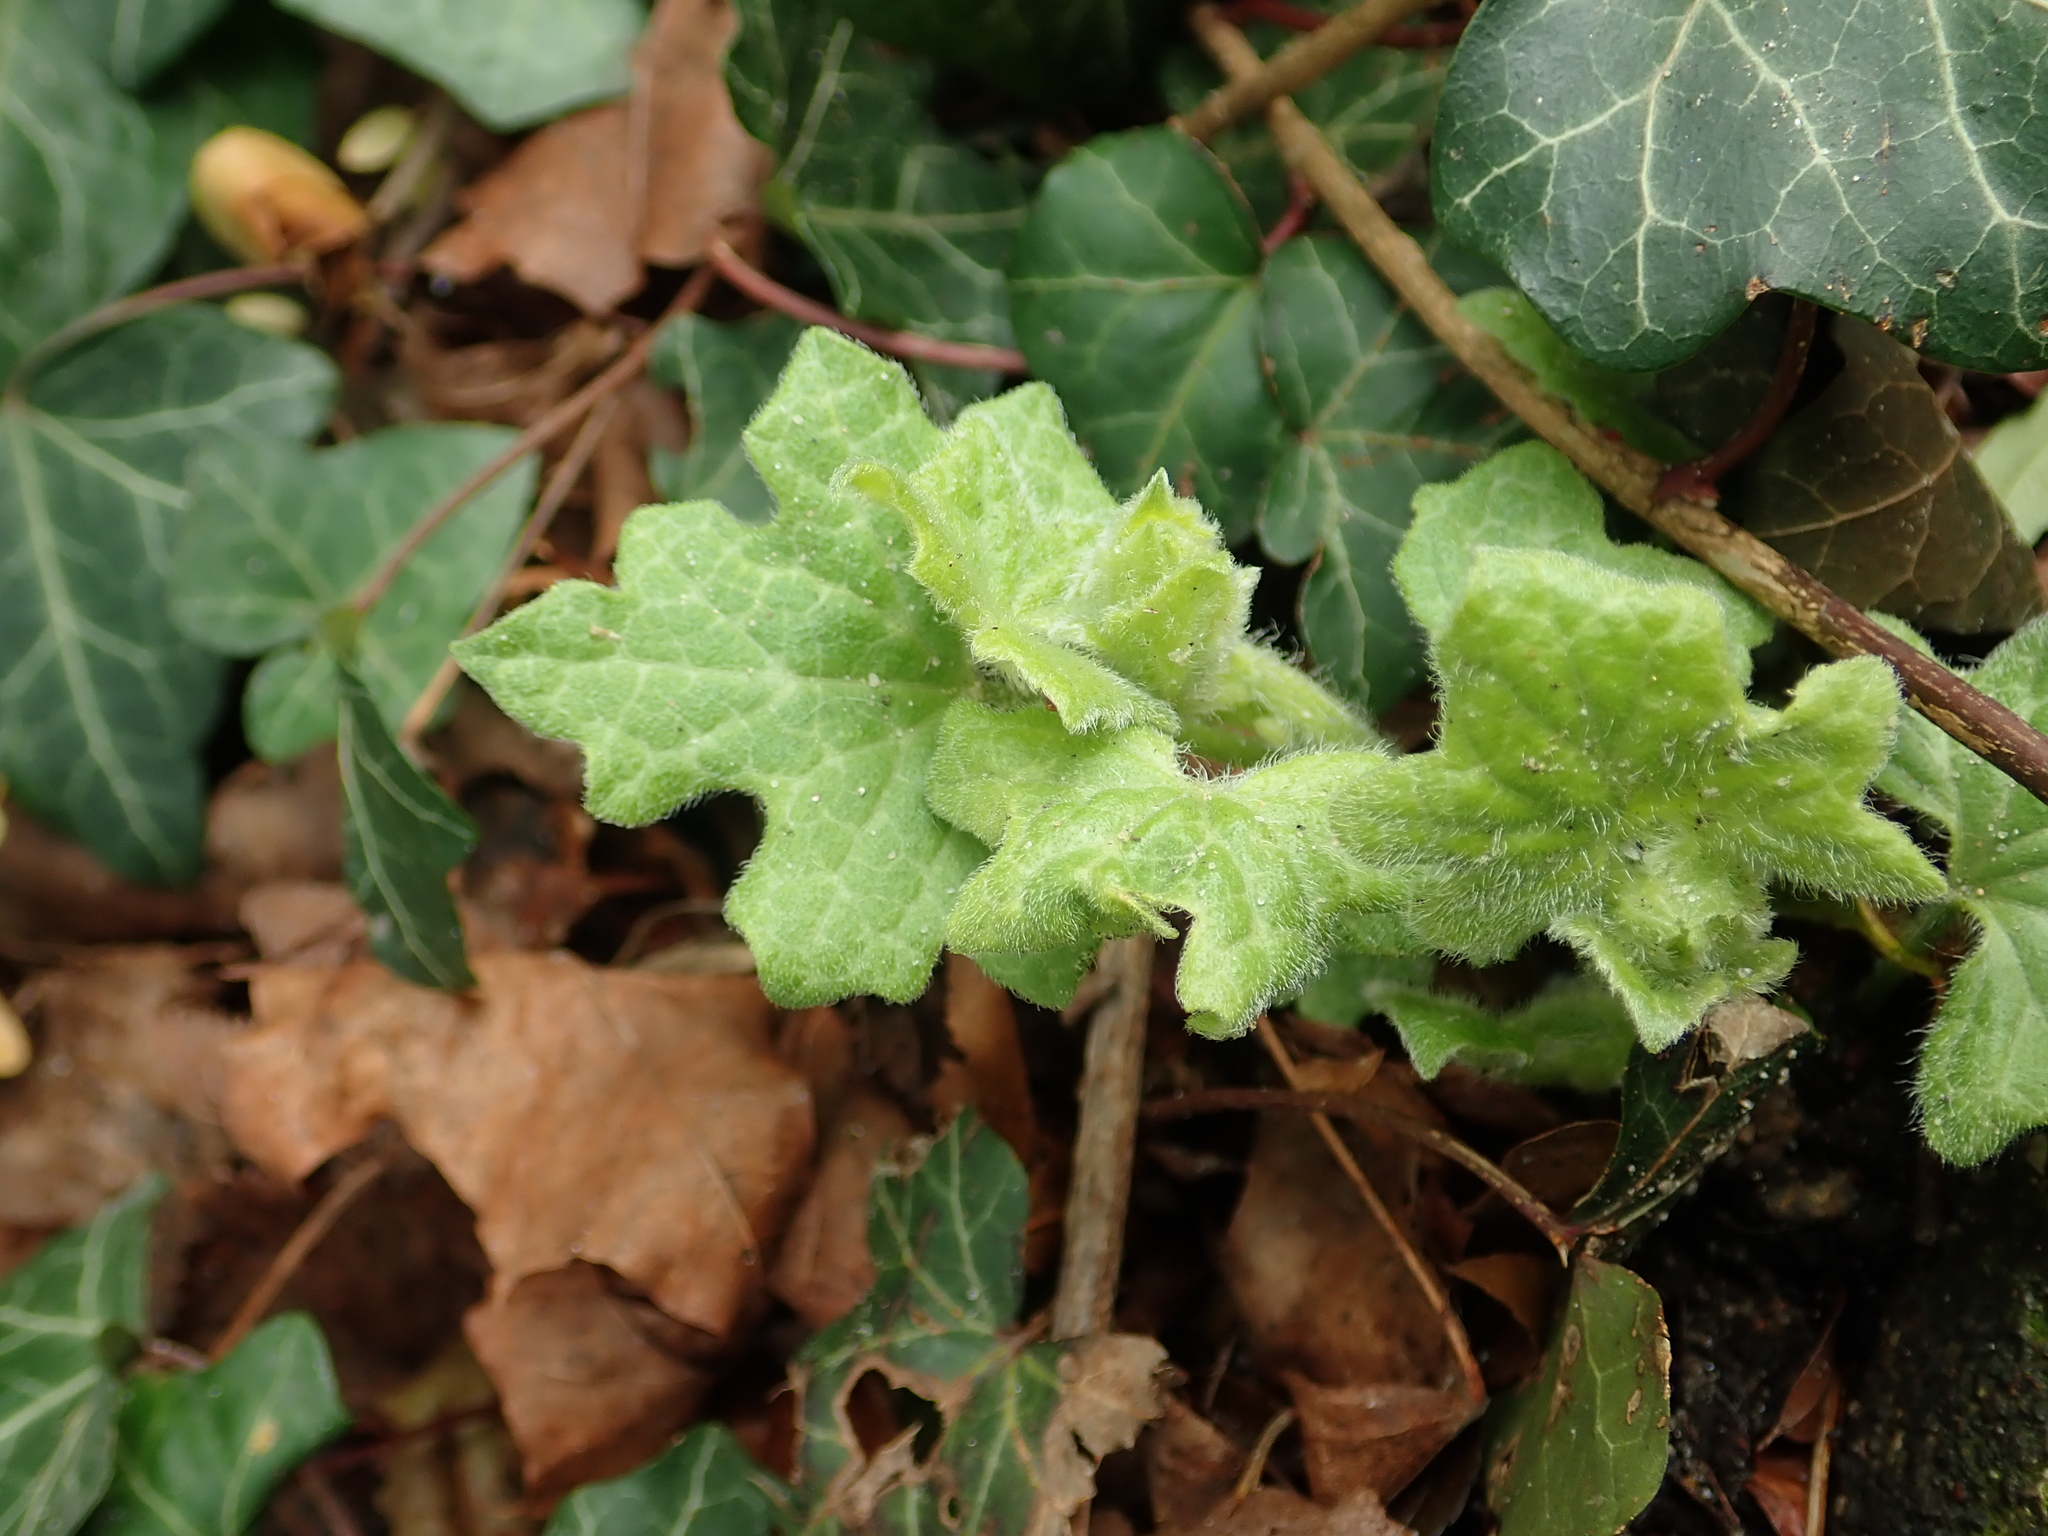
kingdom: Plantae
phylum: Tracheophyta
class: Magnoliopsida
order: Cucurbitales
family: Cucurbitaceae
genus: Bryonia
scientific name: Bryonia cretica
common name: Cretan bryony
